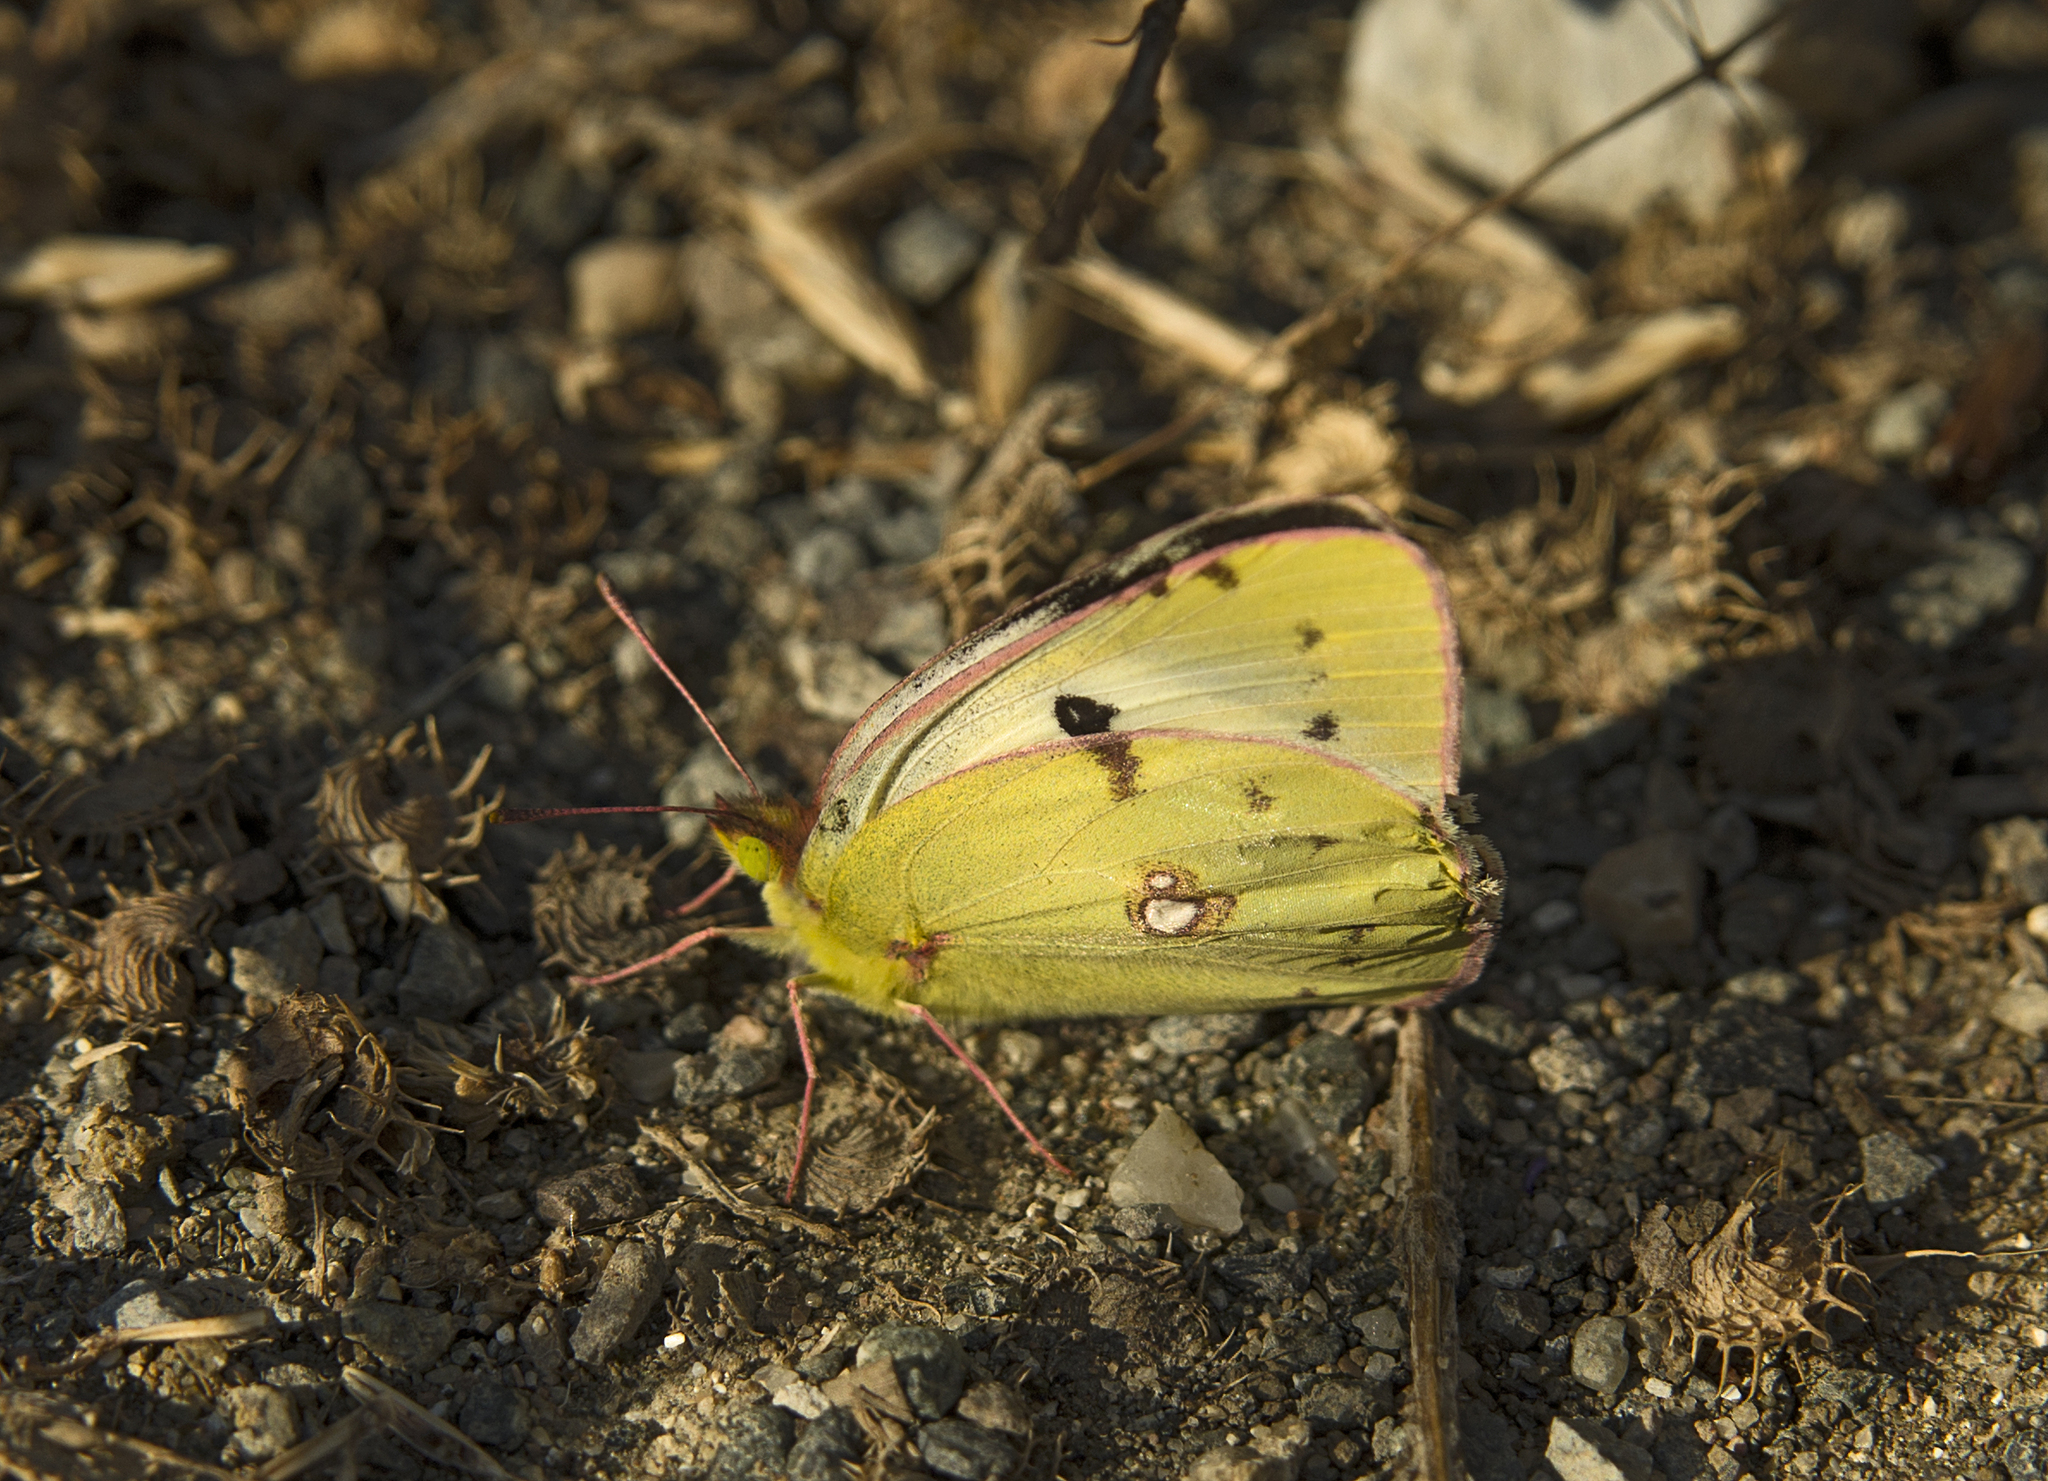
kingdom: Animalia
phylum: Arthropoda
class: Insecta
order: Lepidoptera
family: Pieridae
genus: Colias
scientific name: Colias
